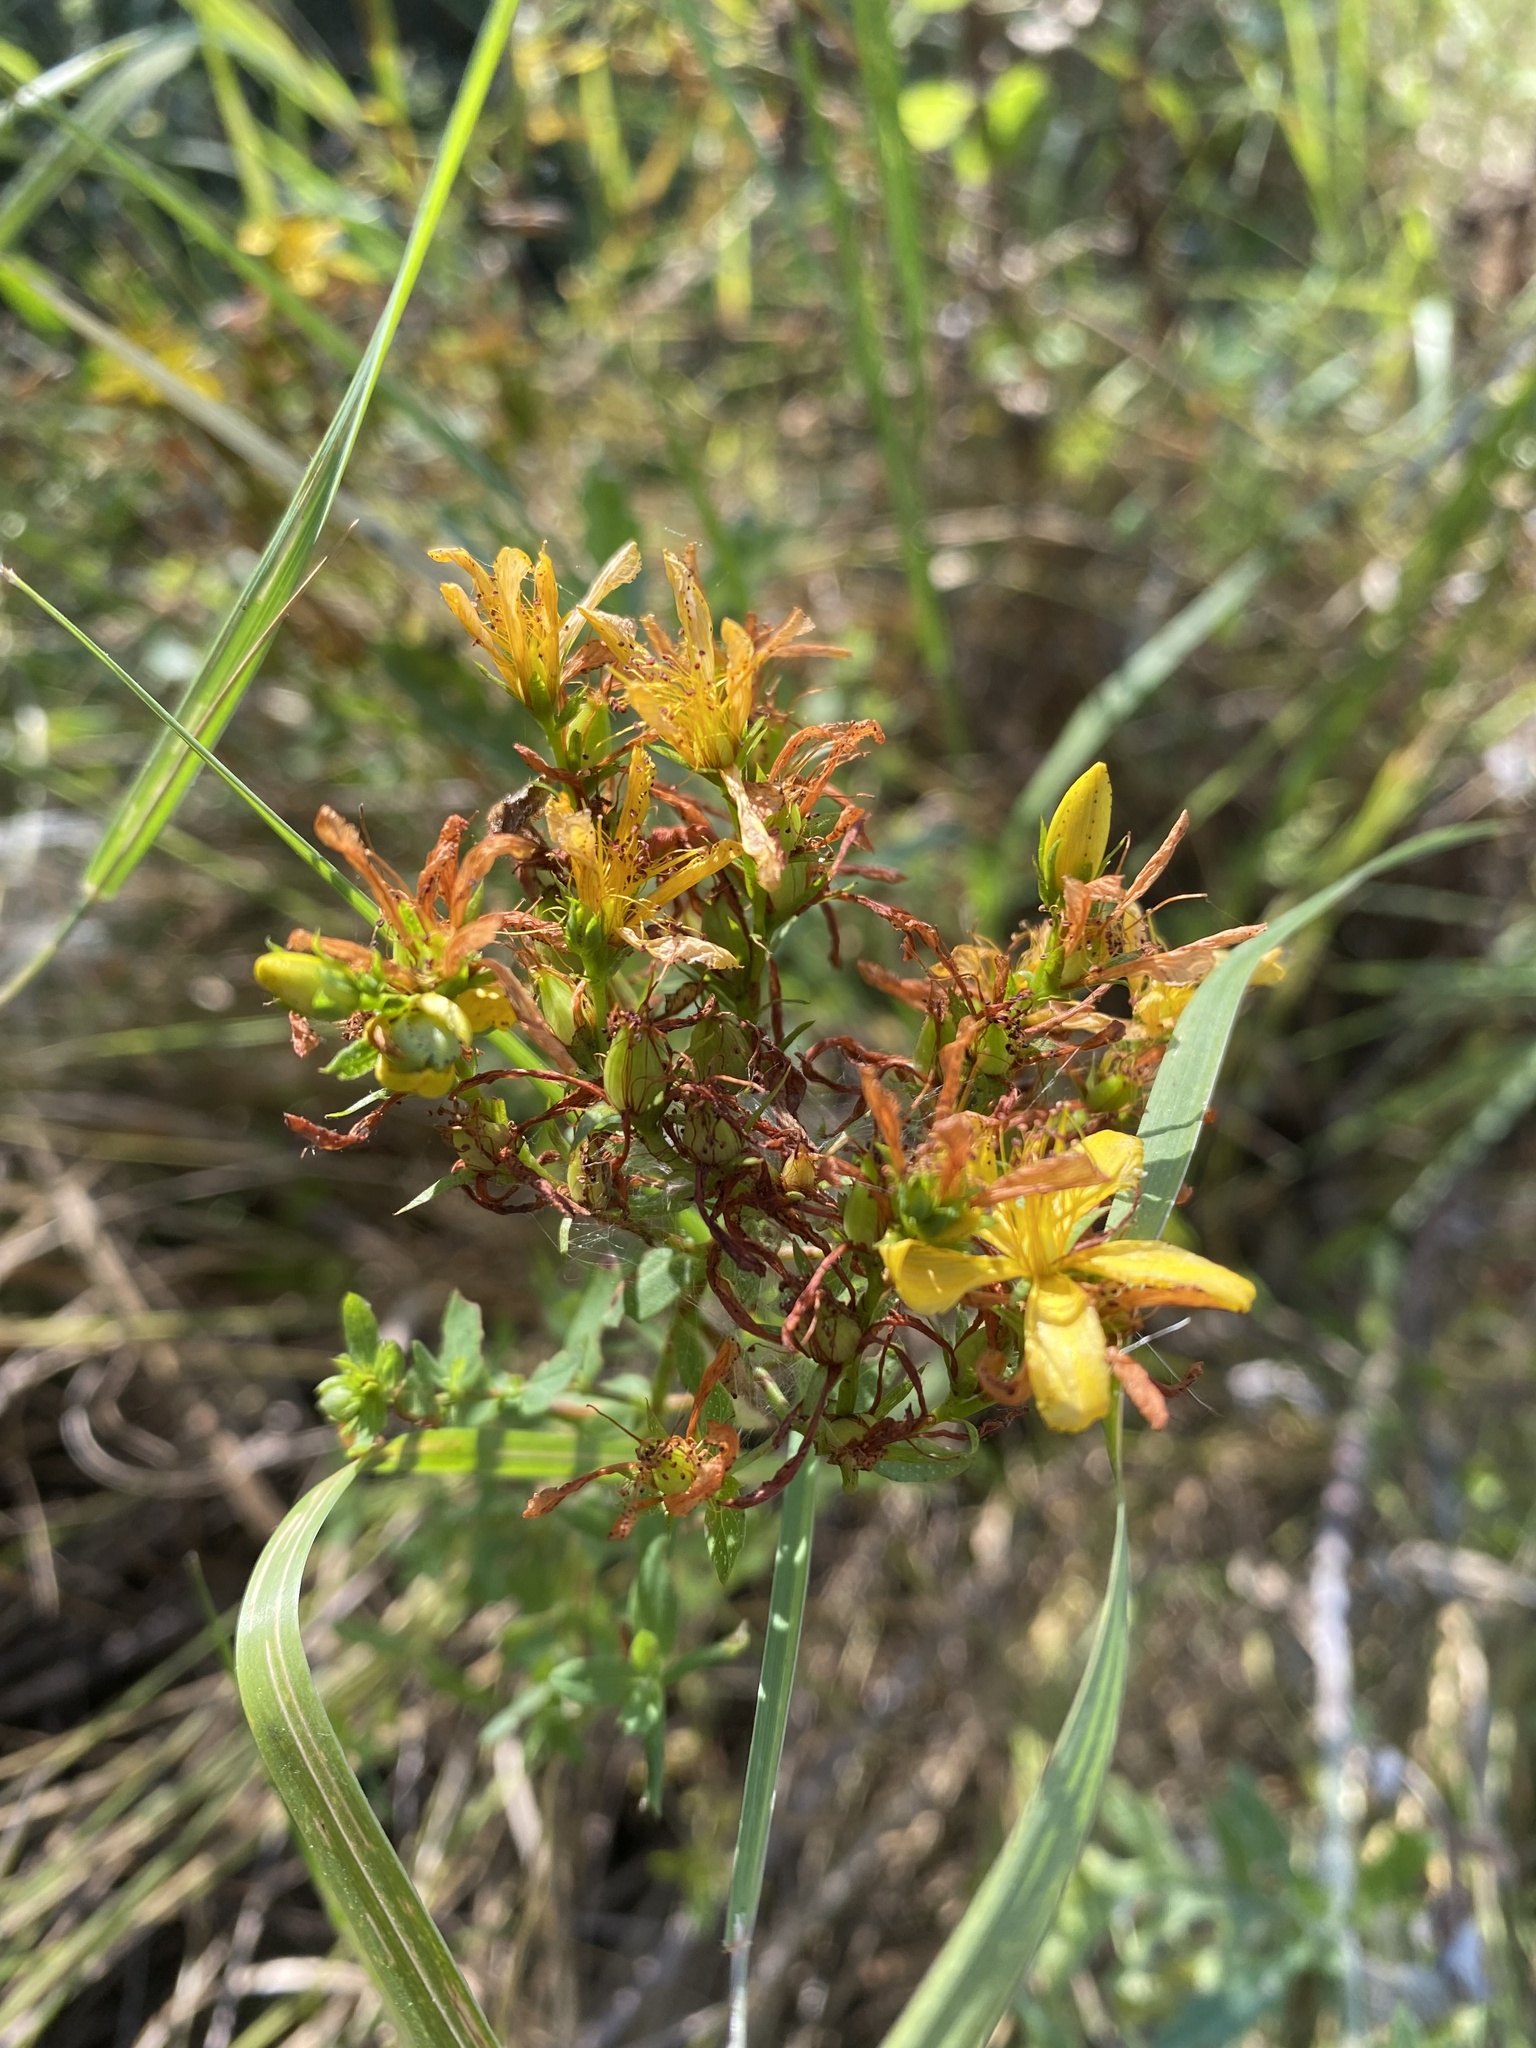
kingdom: Plantae
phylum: Tracheophyta
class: Magnoliopsida
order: Malpighiales
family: Hypericaceae
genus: Hypericum
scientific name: Hypericum perforatum
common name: Common st. johnswort
